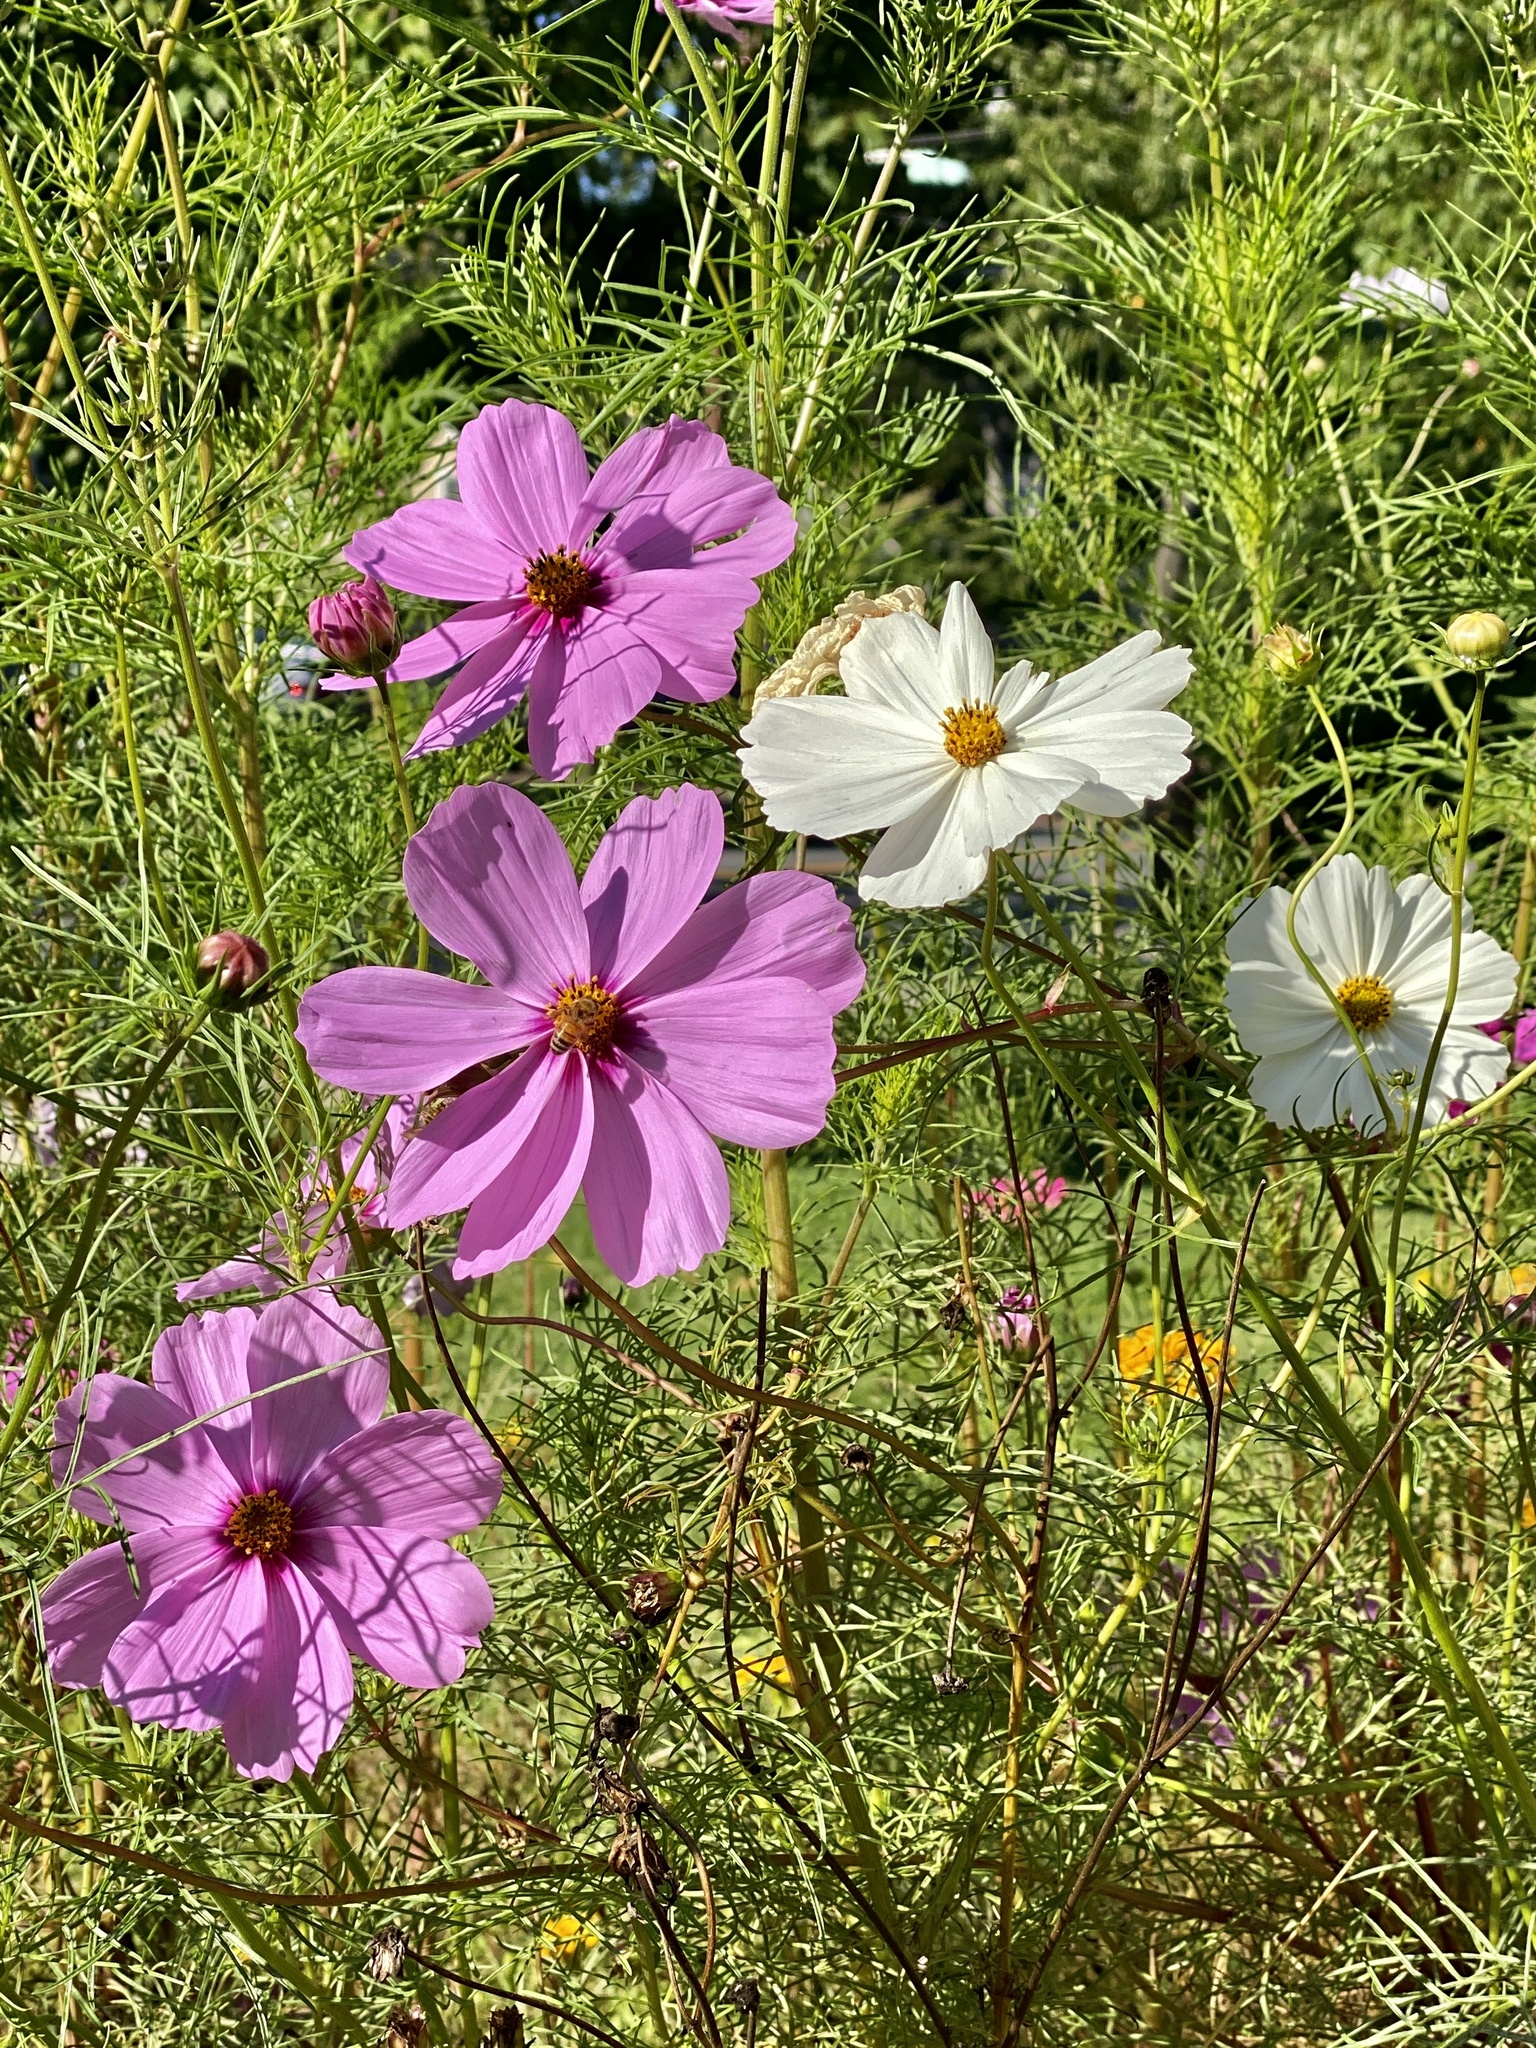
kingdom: Plantae
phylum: Tracheophyta
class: Magnoliopsida
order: Asterales
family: Asteraceae
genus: Cosmos
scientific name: Cosmos bipinnatus
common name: Garden cosmos
